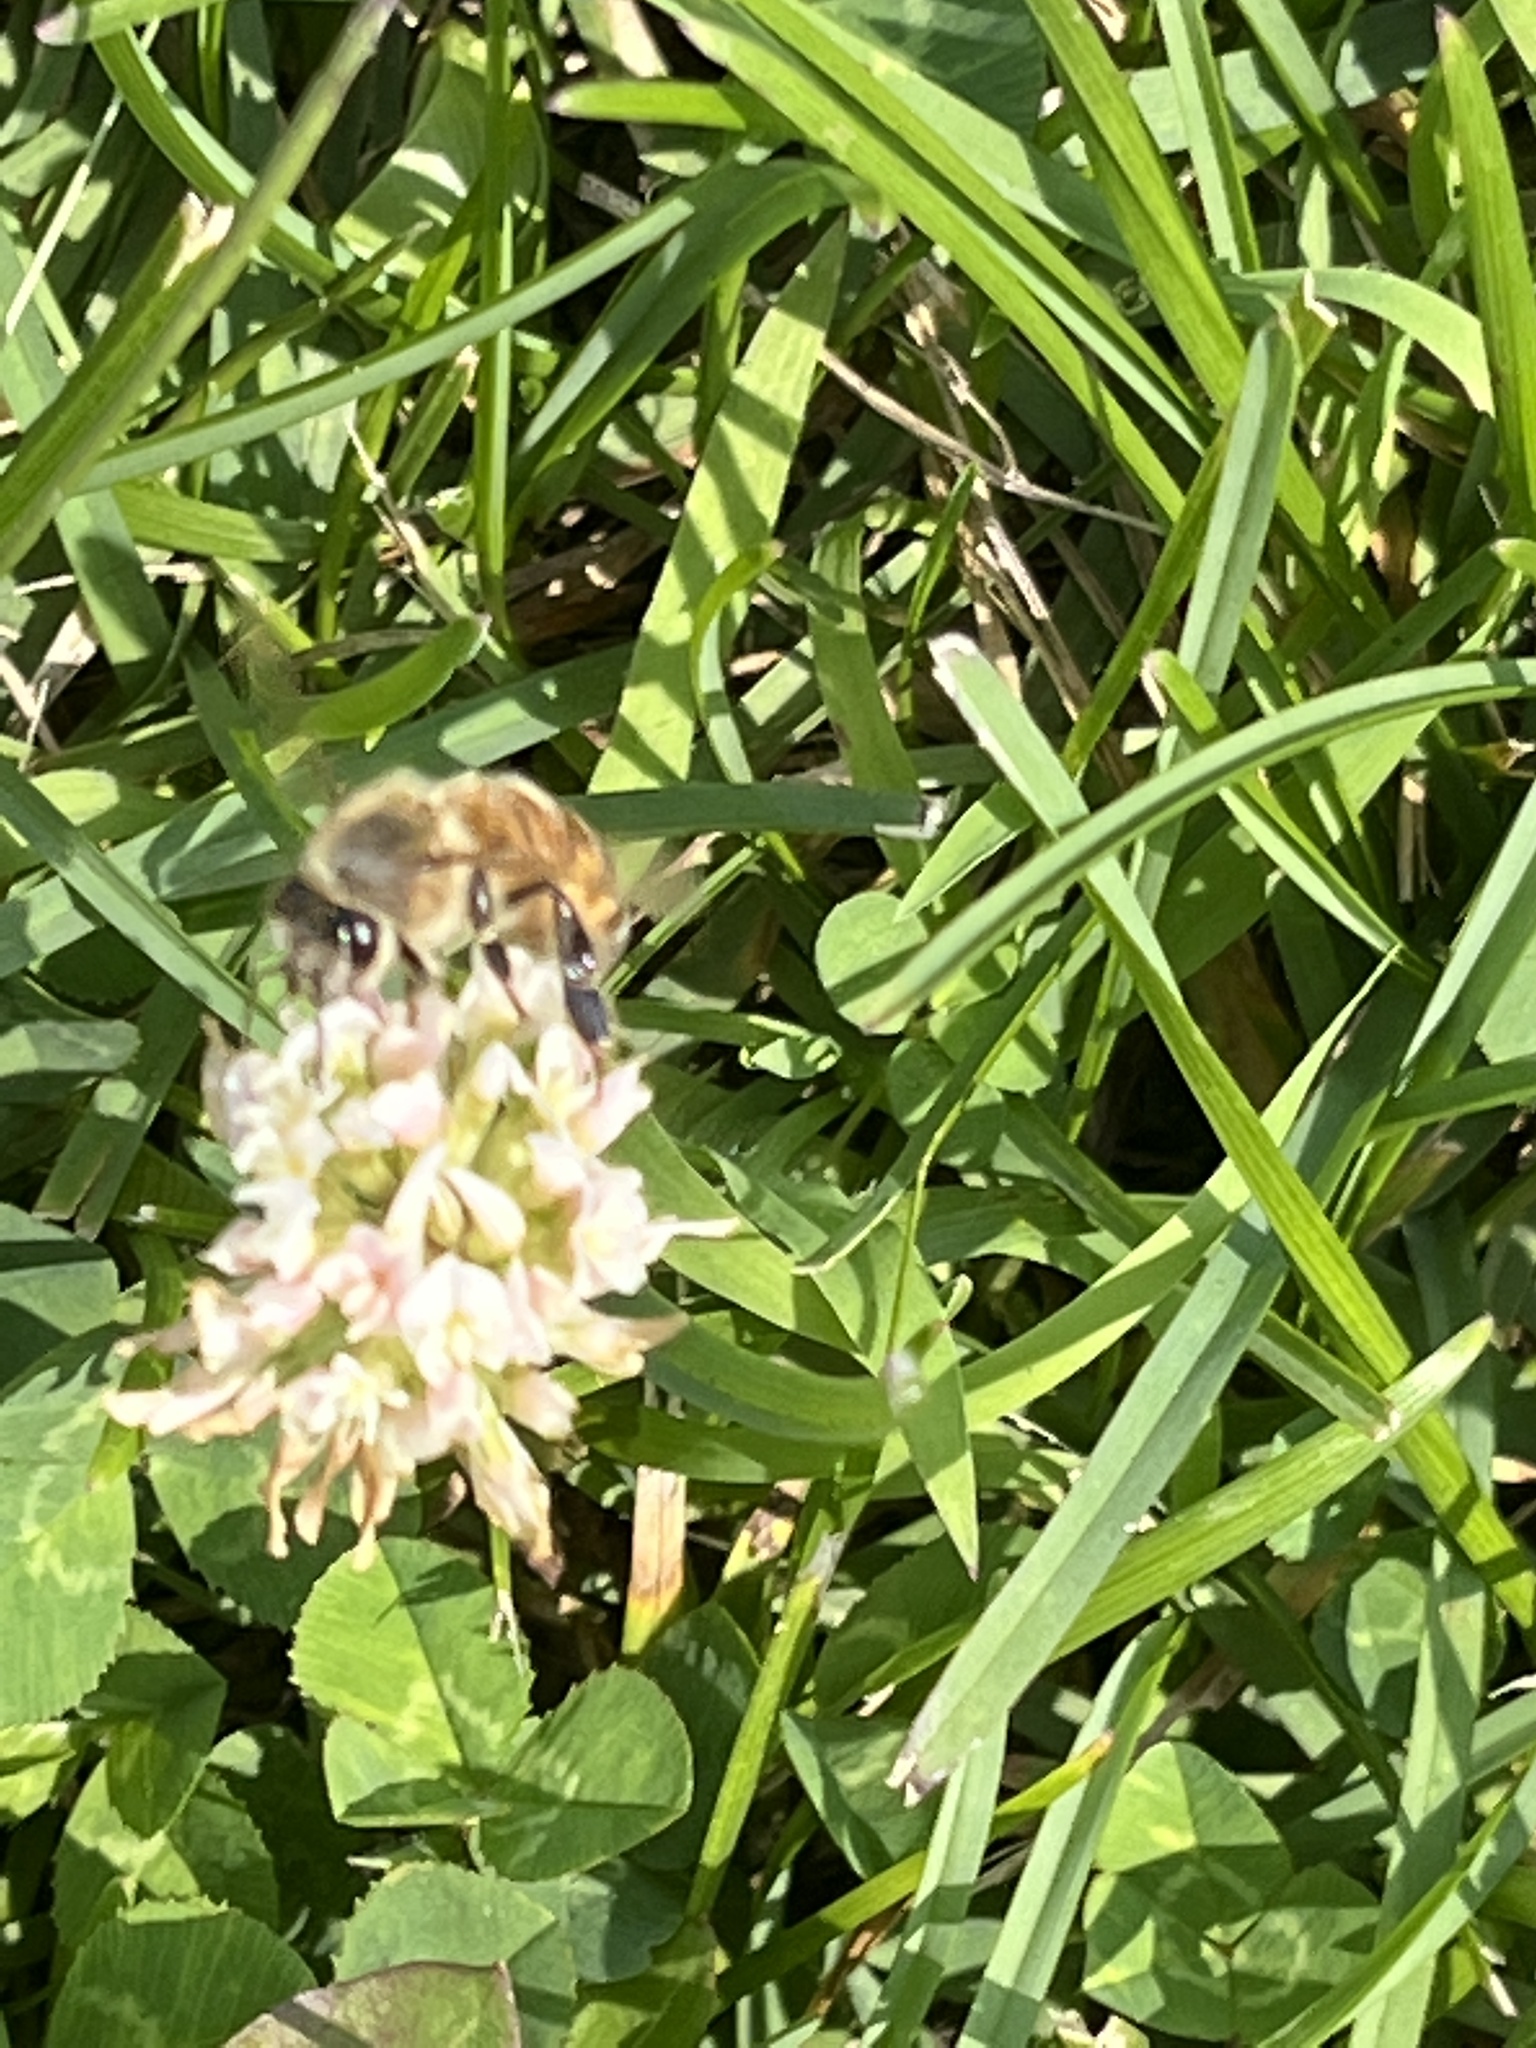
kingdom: Animalia
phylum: Arthropoda
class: Insecta
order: Hymenoptera
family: Apidae
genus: Apis
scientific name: Apis mellifera
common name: Honey bee
